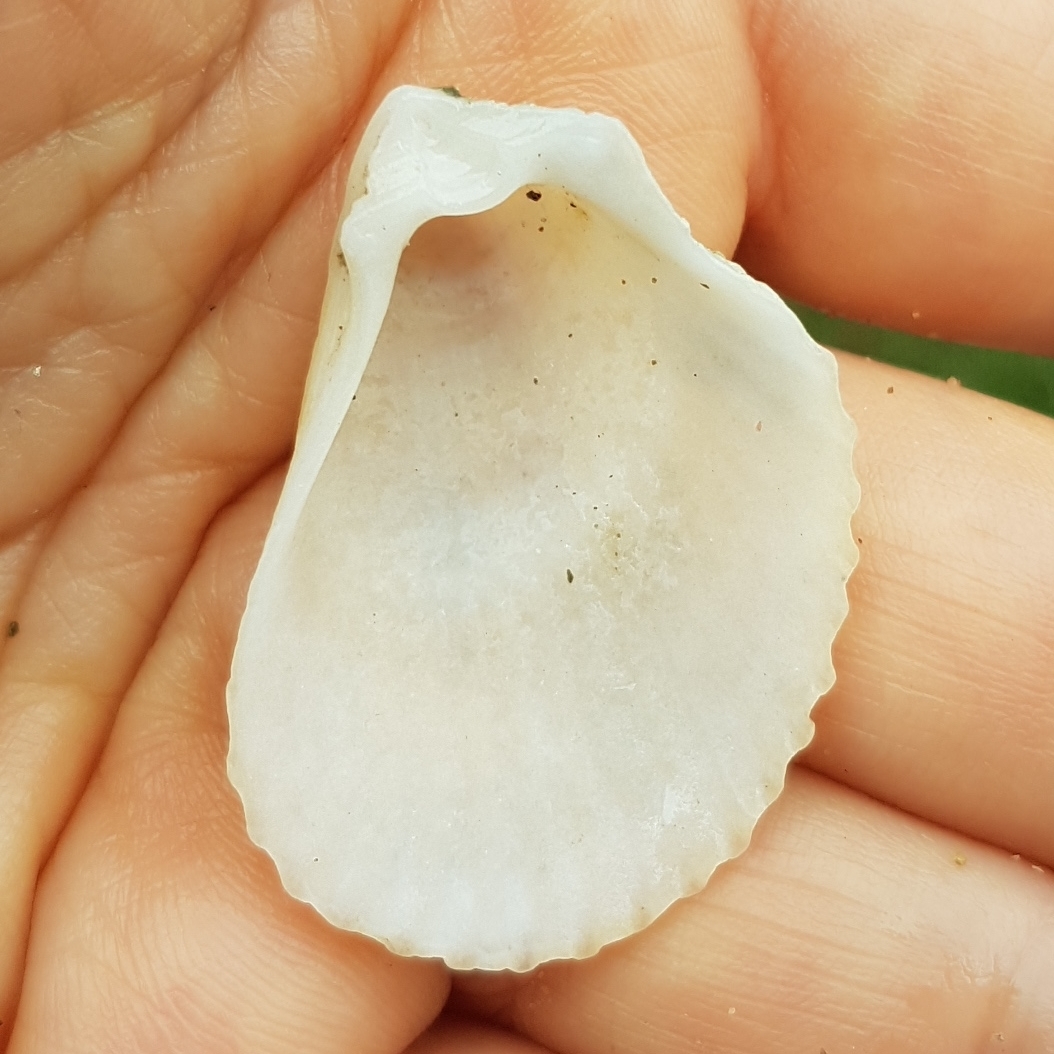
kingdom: Animalia
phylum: Mollusca
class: Bivalvia
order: Limida
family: Limidae
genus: Lima
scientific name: Lima lima
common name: Frilled file shell
